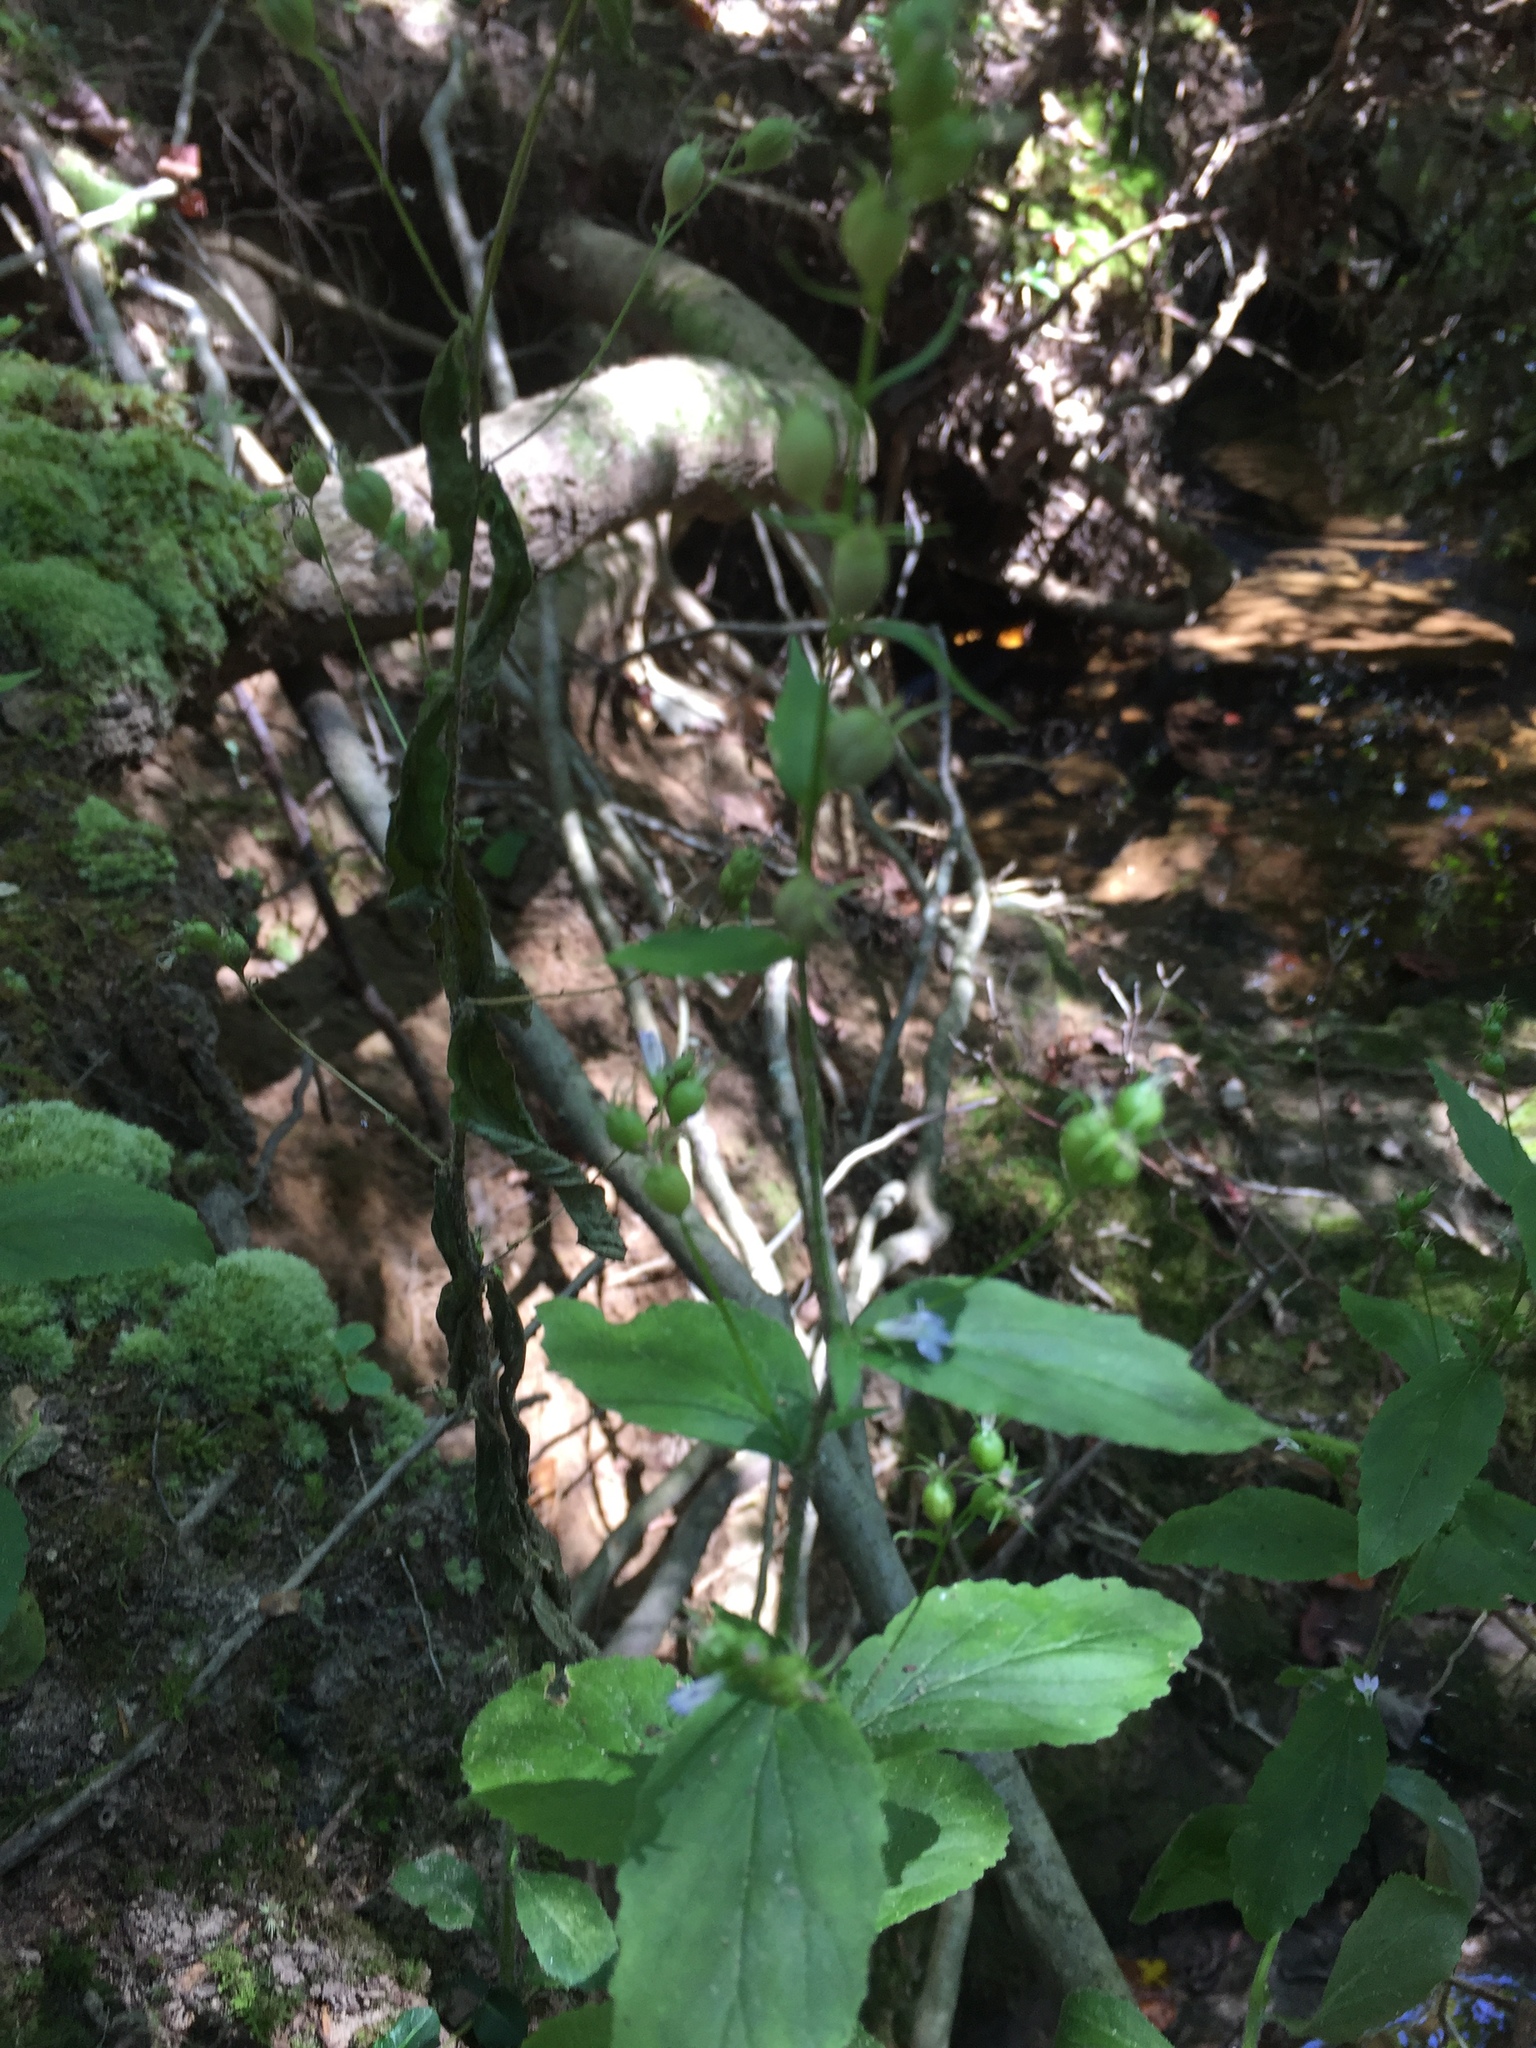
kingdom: Plantae
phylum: Tracheophyta
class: Magnoliopsida
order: Asterales
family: Campanulaceae
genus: Lobelia
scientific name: Lobelia inflata
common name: Indian tobacco
